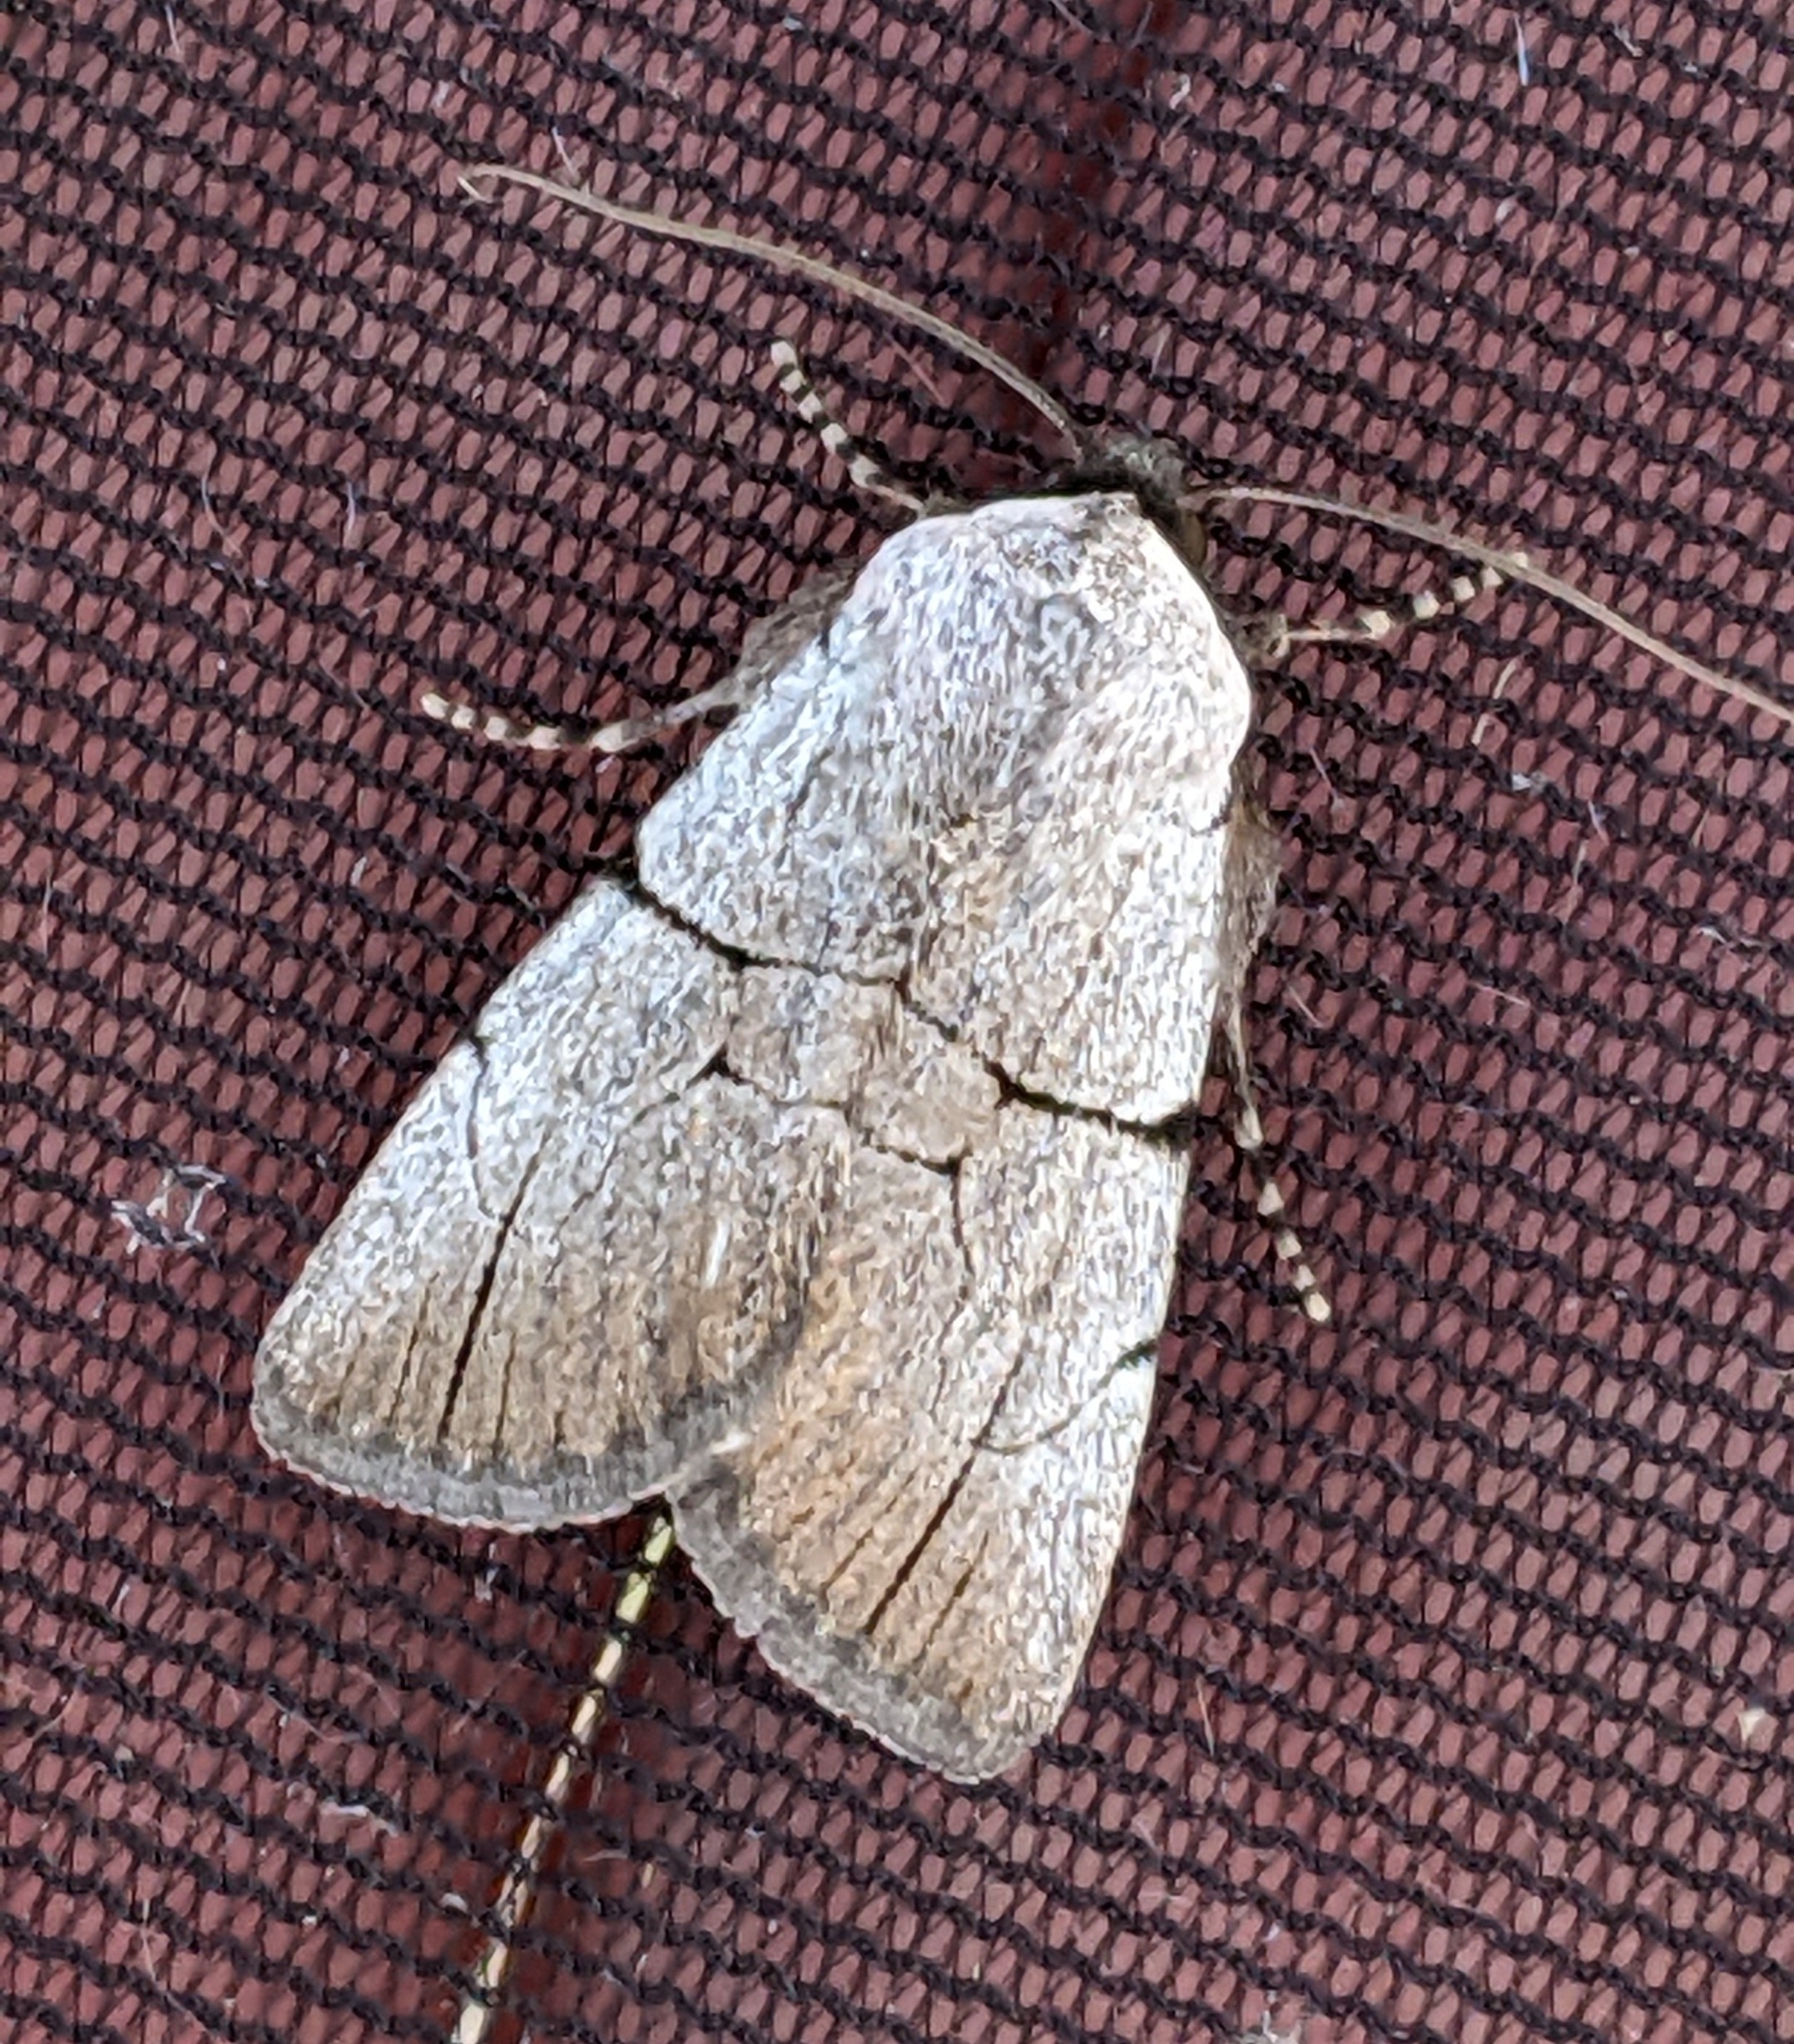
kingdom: Animalia
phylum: Arthropoda
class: Insecta
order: Lepidoptera
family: Noctuidae
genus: Sympistis
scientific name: Sympistis greyi
